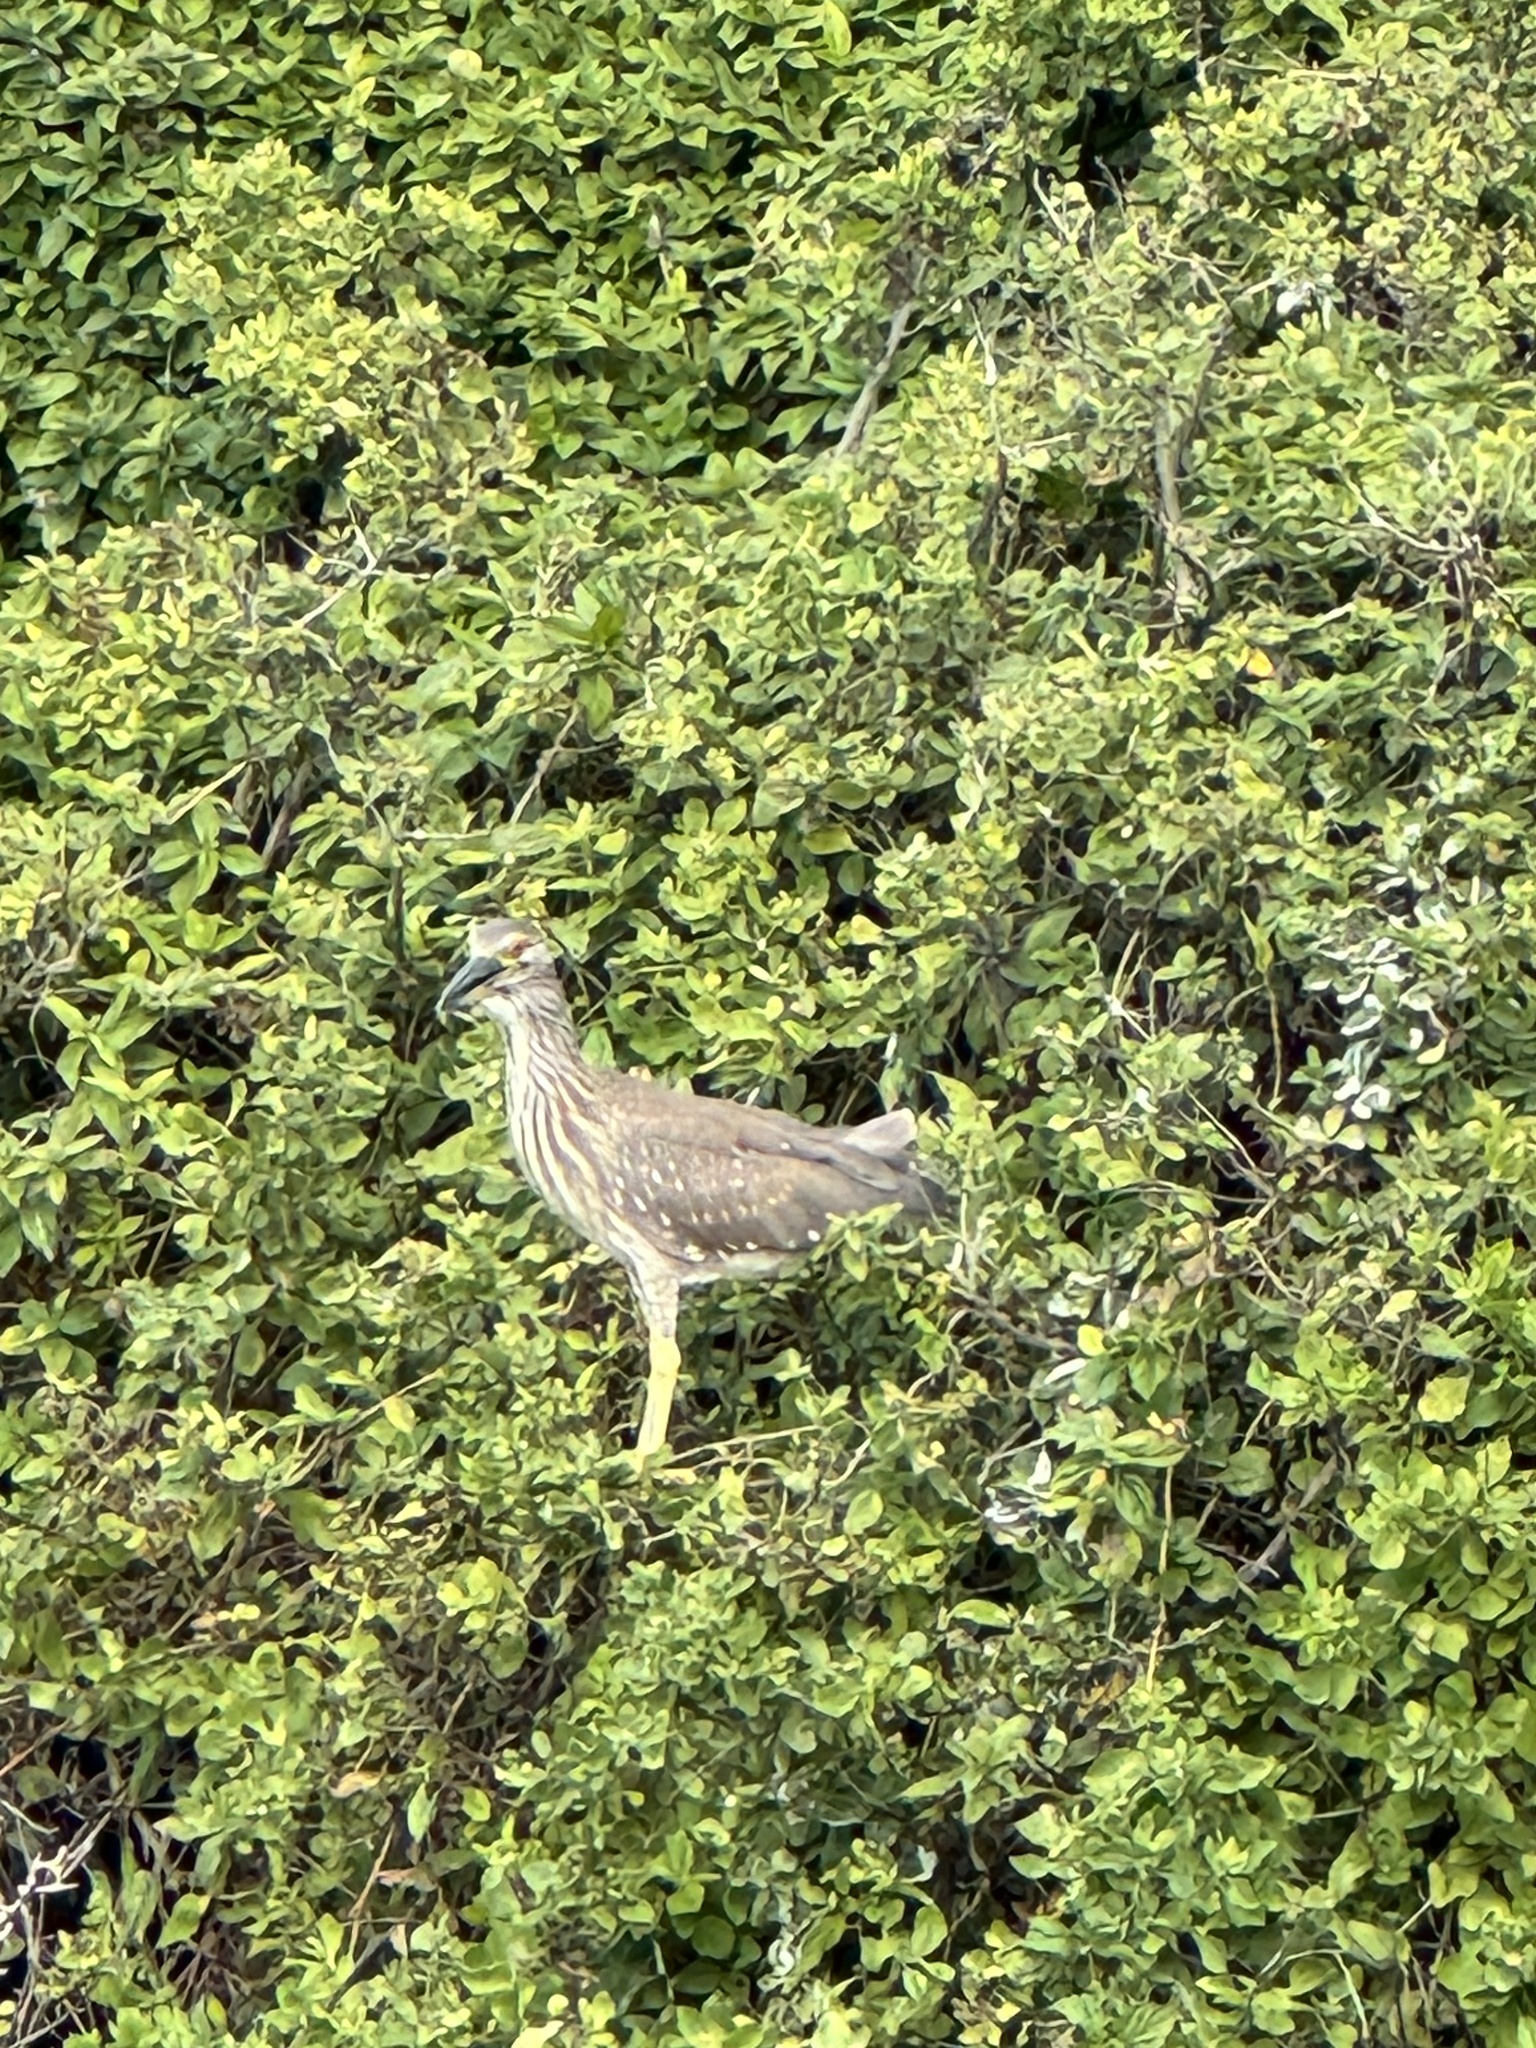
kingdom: Animalia
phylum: Chordata
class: Aves
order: Pelecaniformes
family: Ardeidae
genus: Nycticorax
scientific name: Nycticorax nycticorax
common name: Black-crowned night heron
